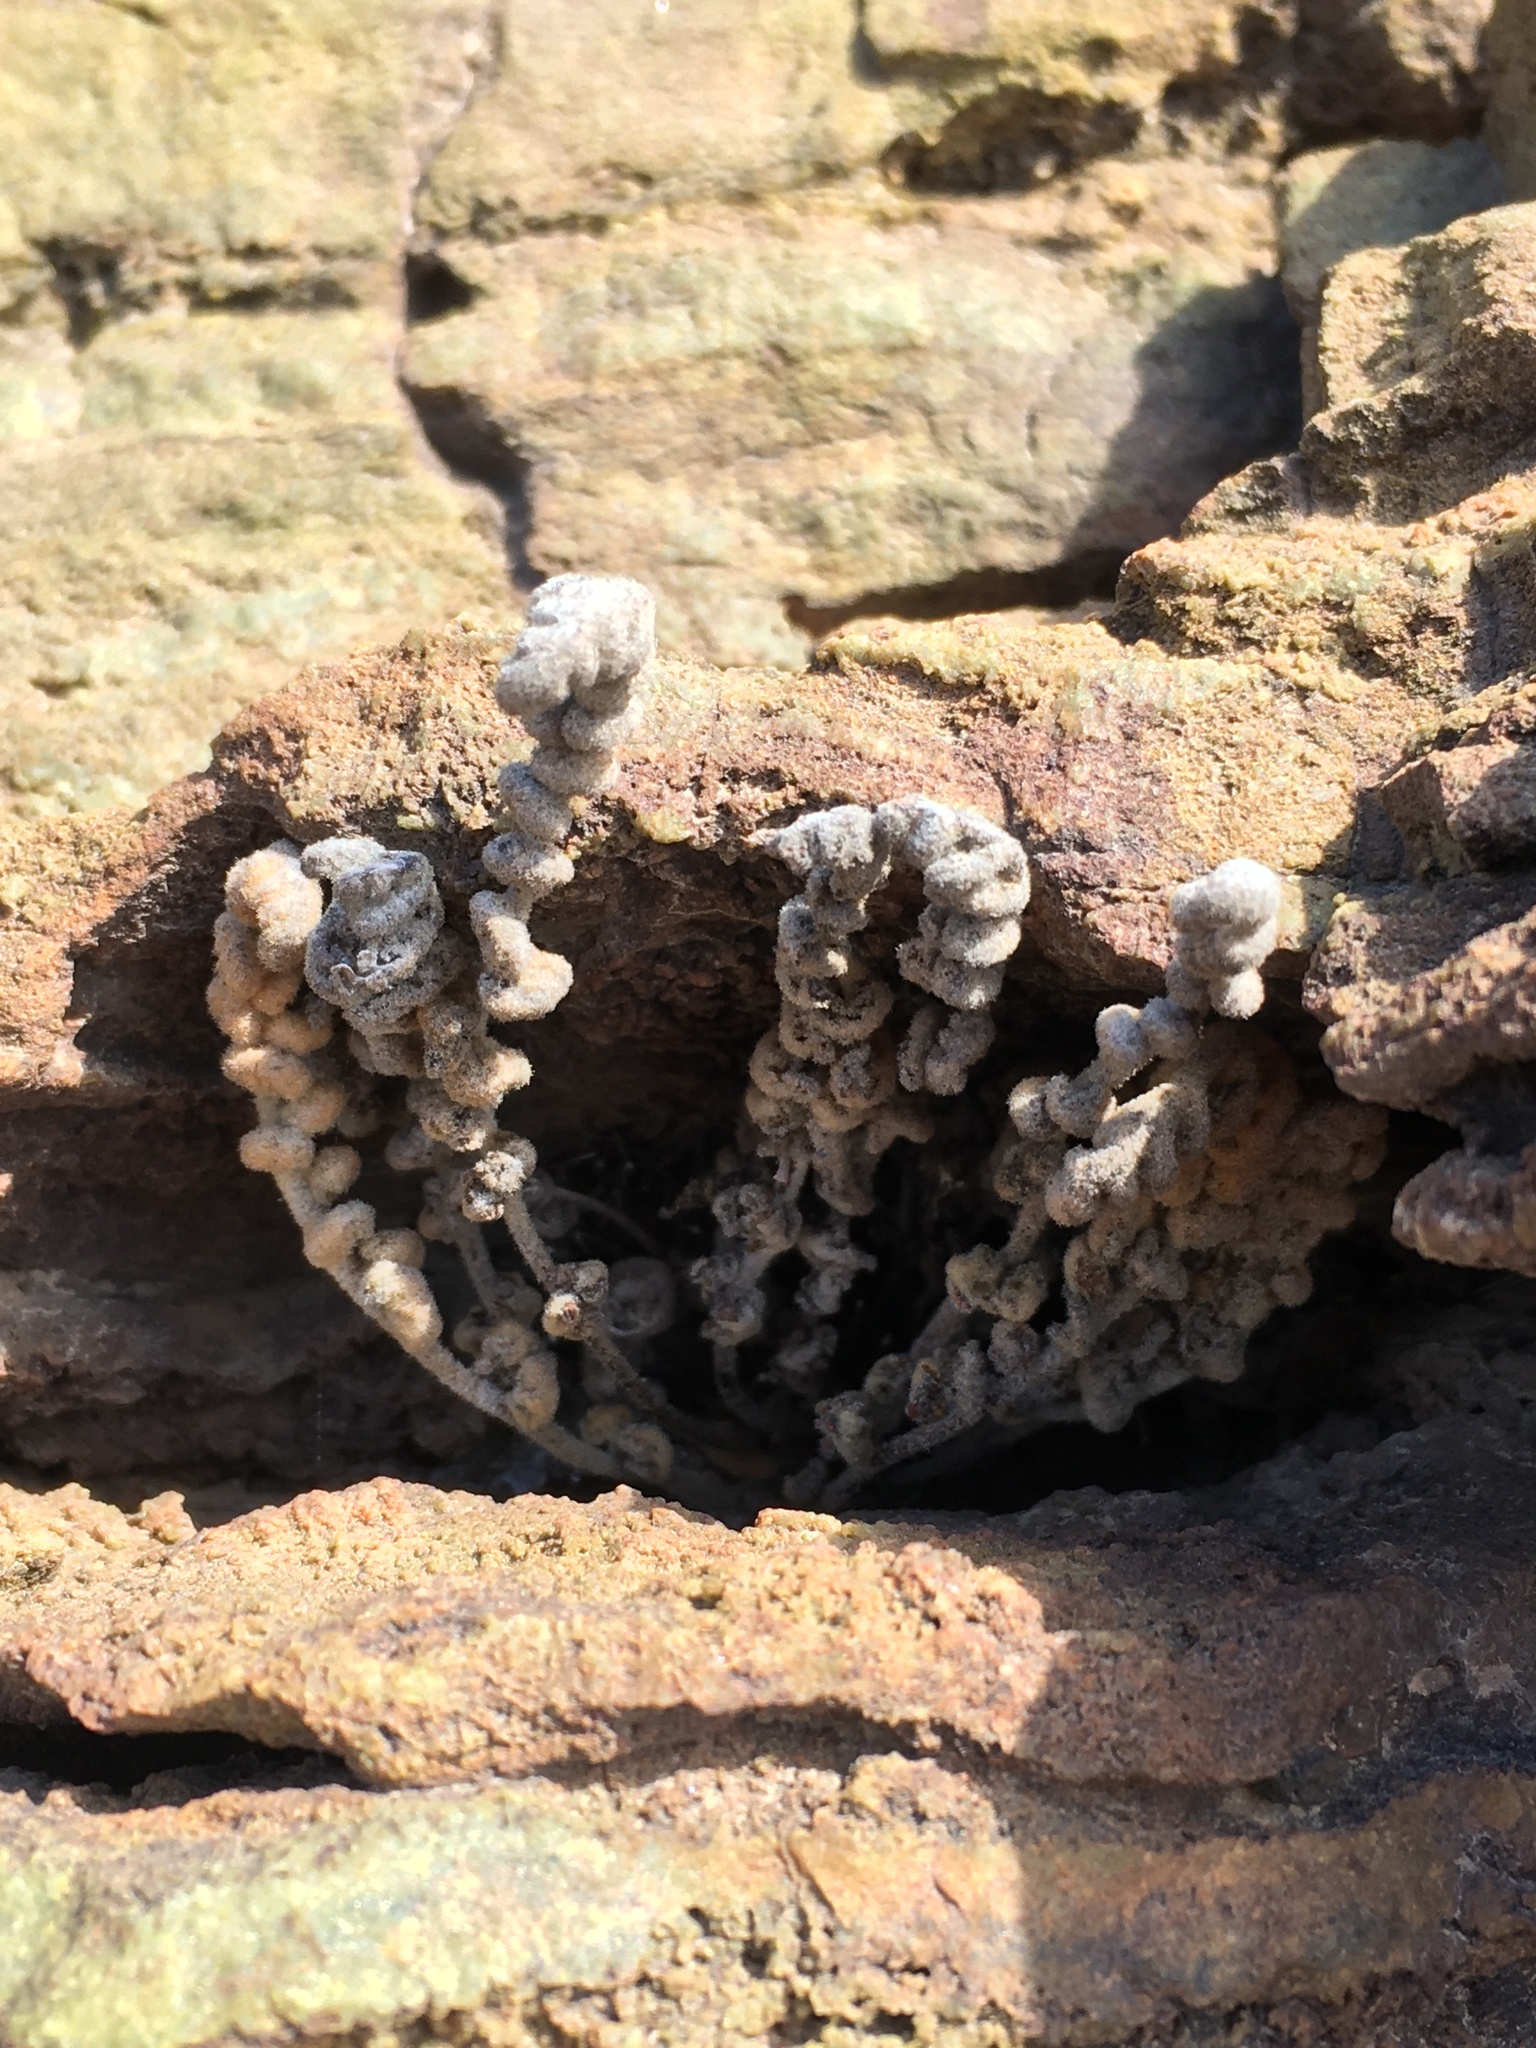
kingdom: Plantae
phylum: Tracheophyta
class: Polypodiopsida
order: Polypodiales
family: Pteridaceae
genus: Cheilanthes
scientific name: Cheilanthes mollis
